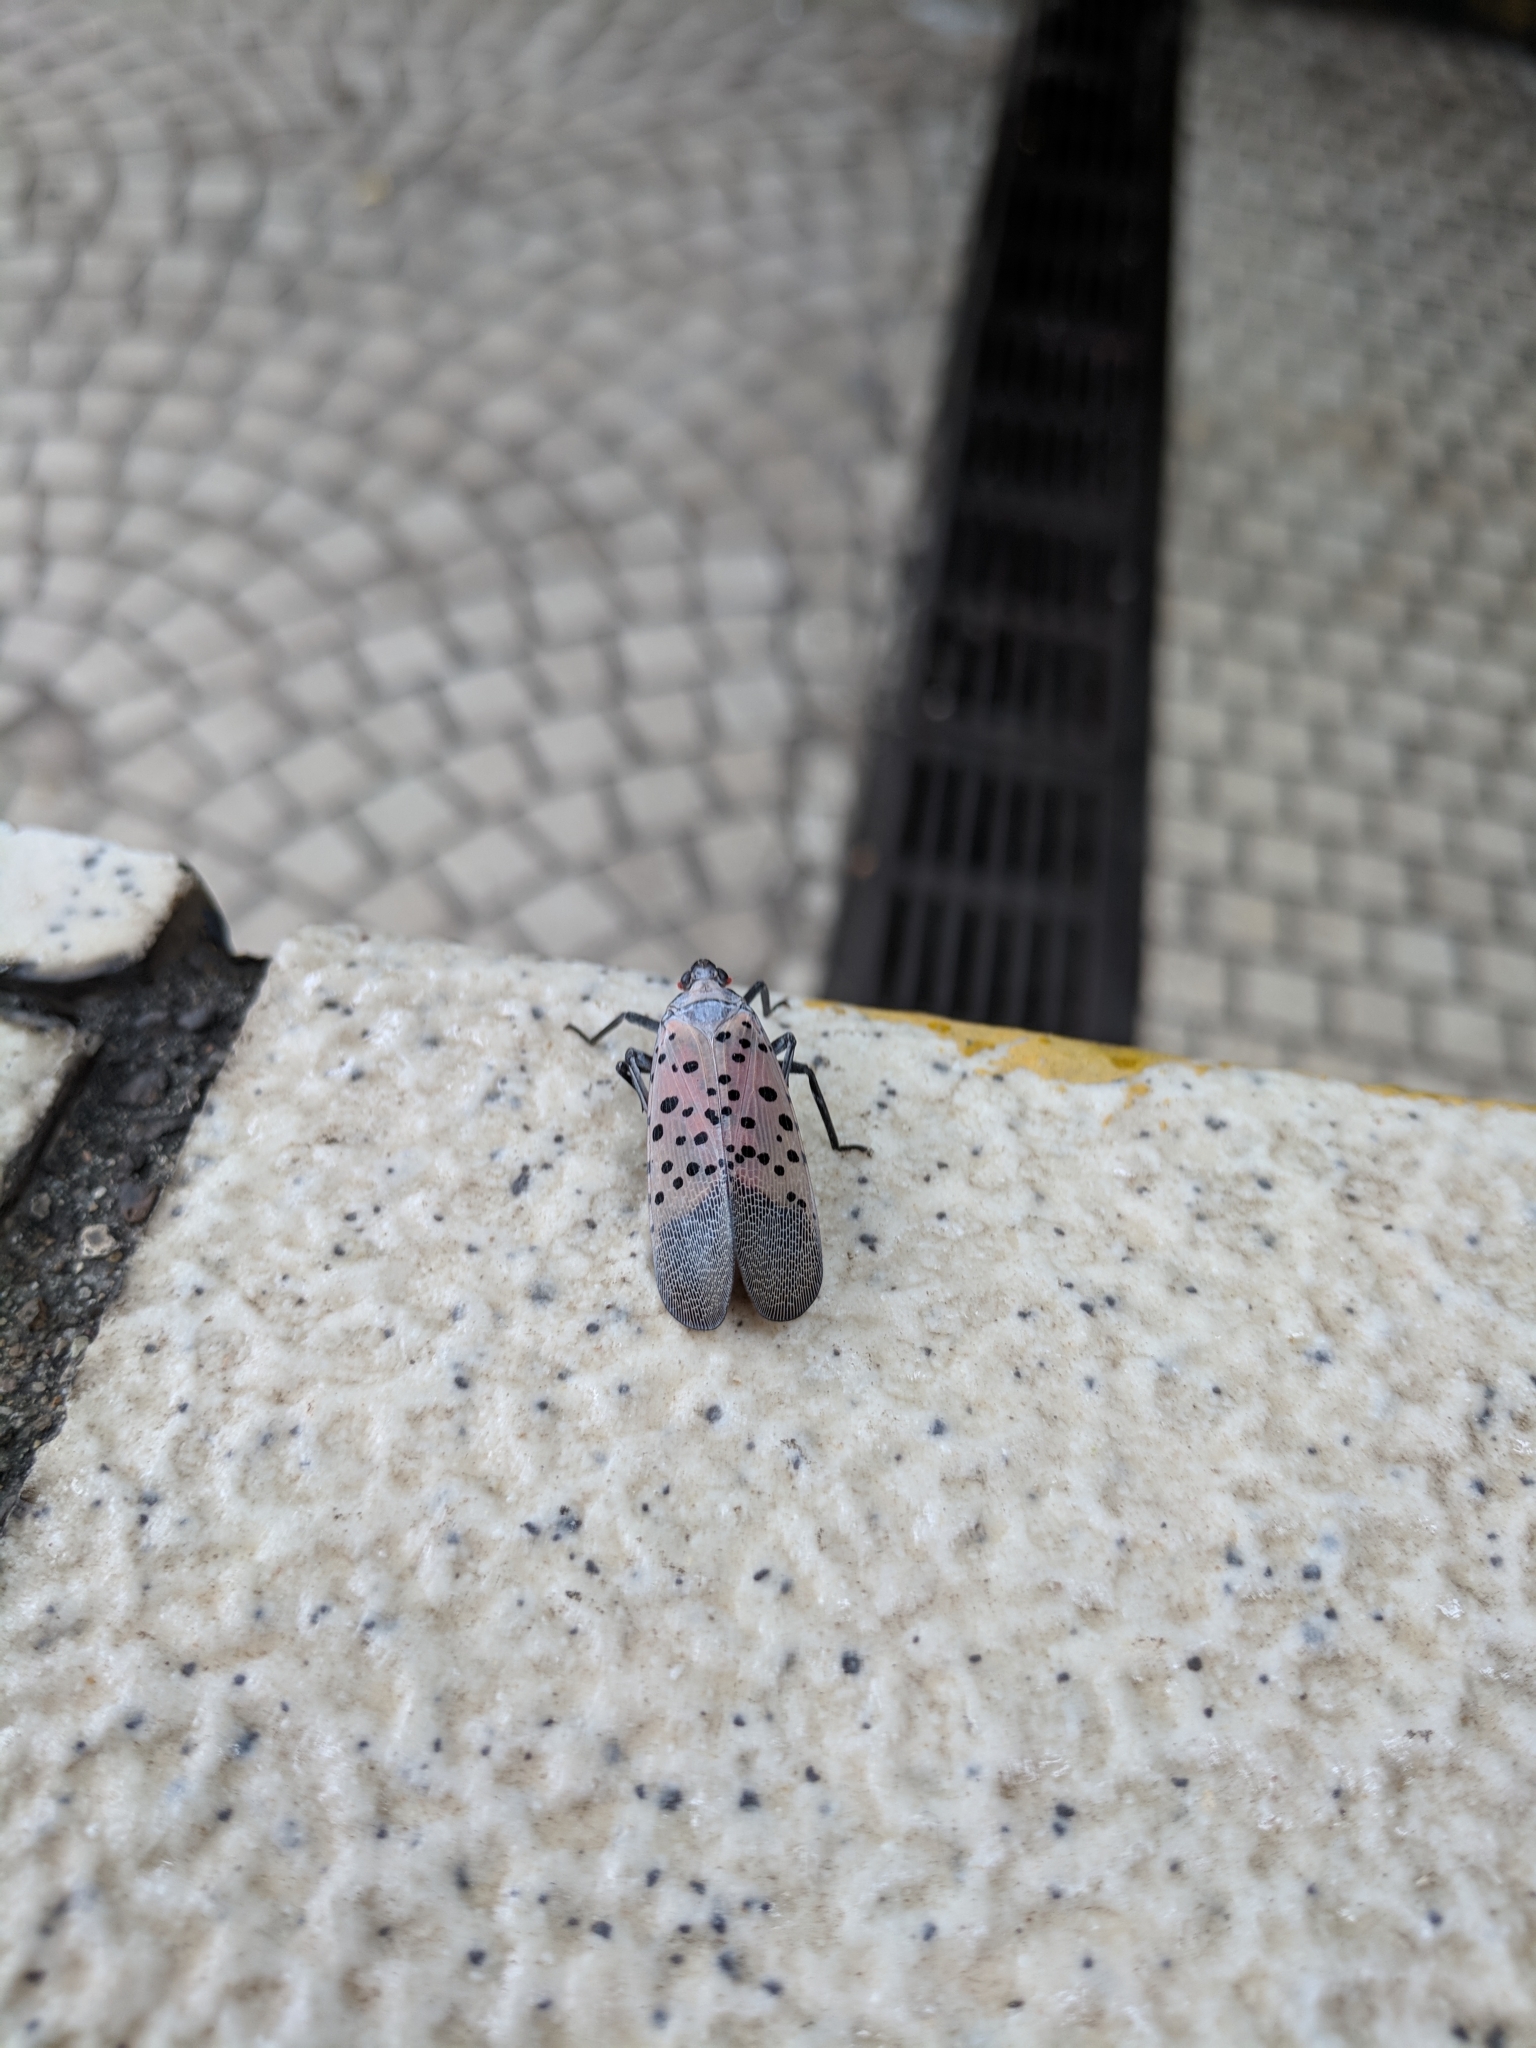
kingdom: Animalia
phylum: Arthropoda
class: Insecta
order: Hemiptera
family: Fulgoridae
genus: Lycorma
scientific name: Lycorma delicatula
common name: Spotted lanternfly
